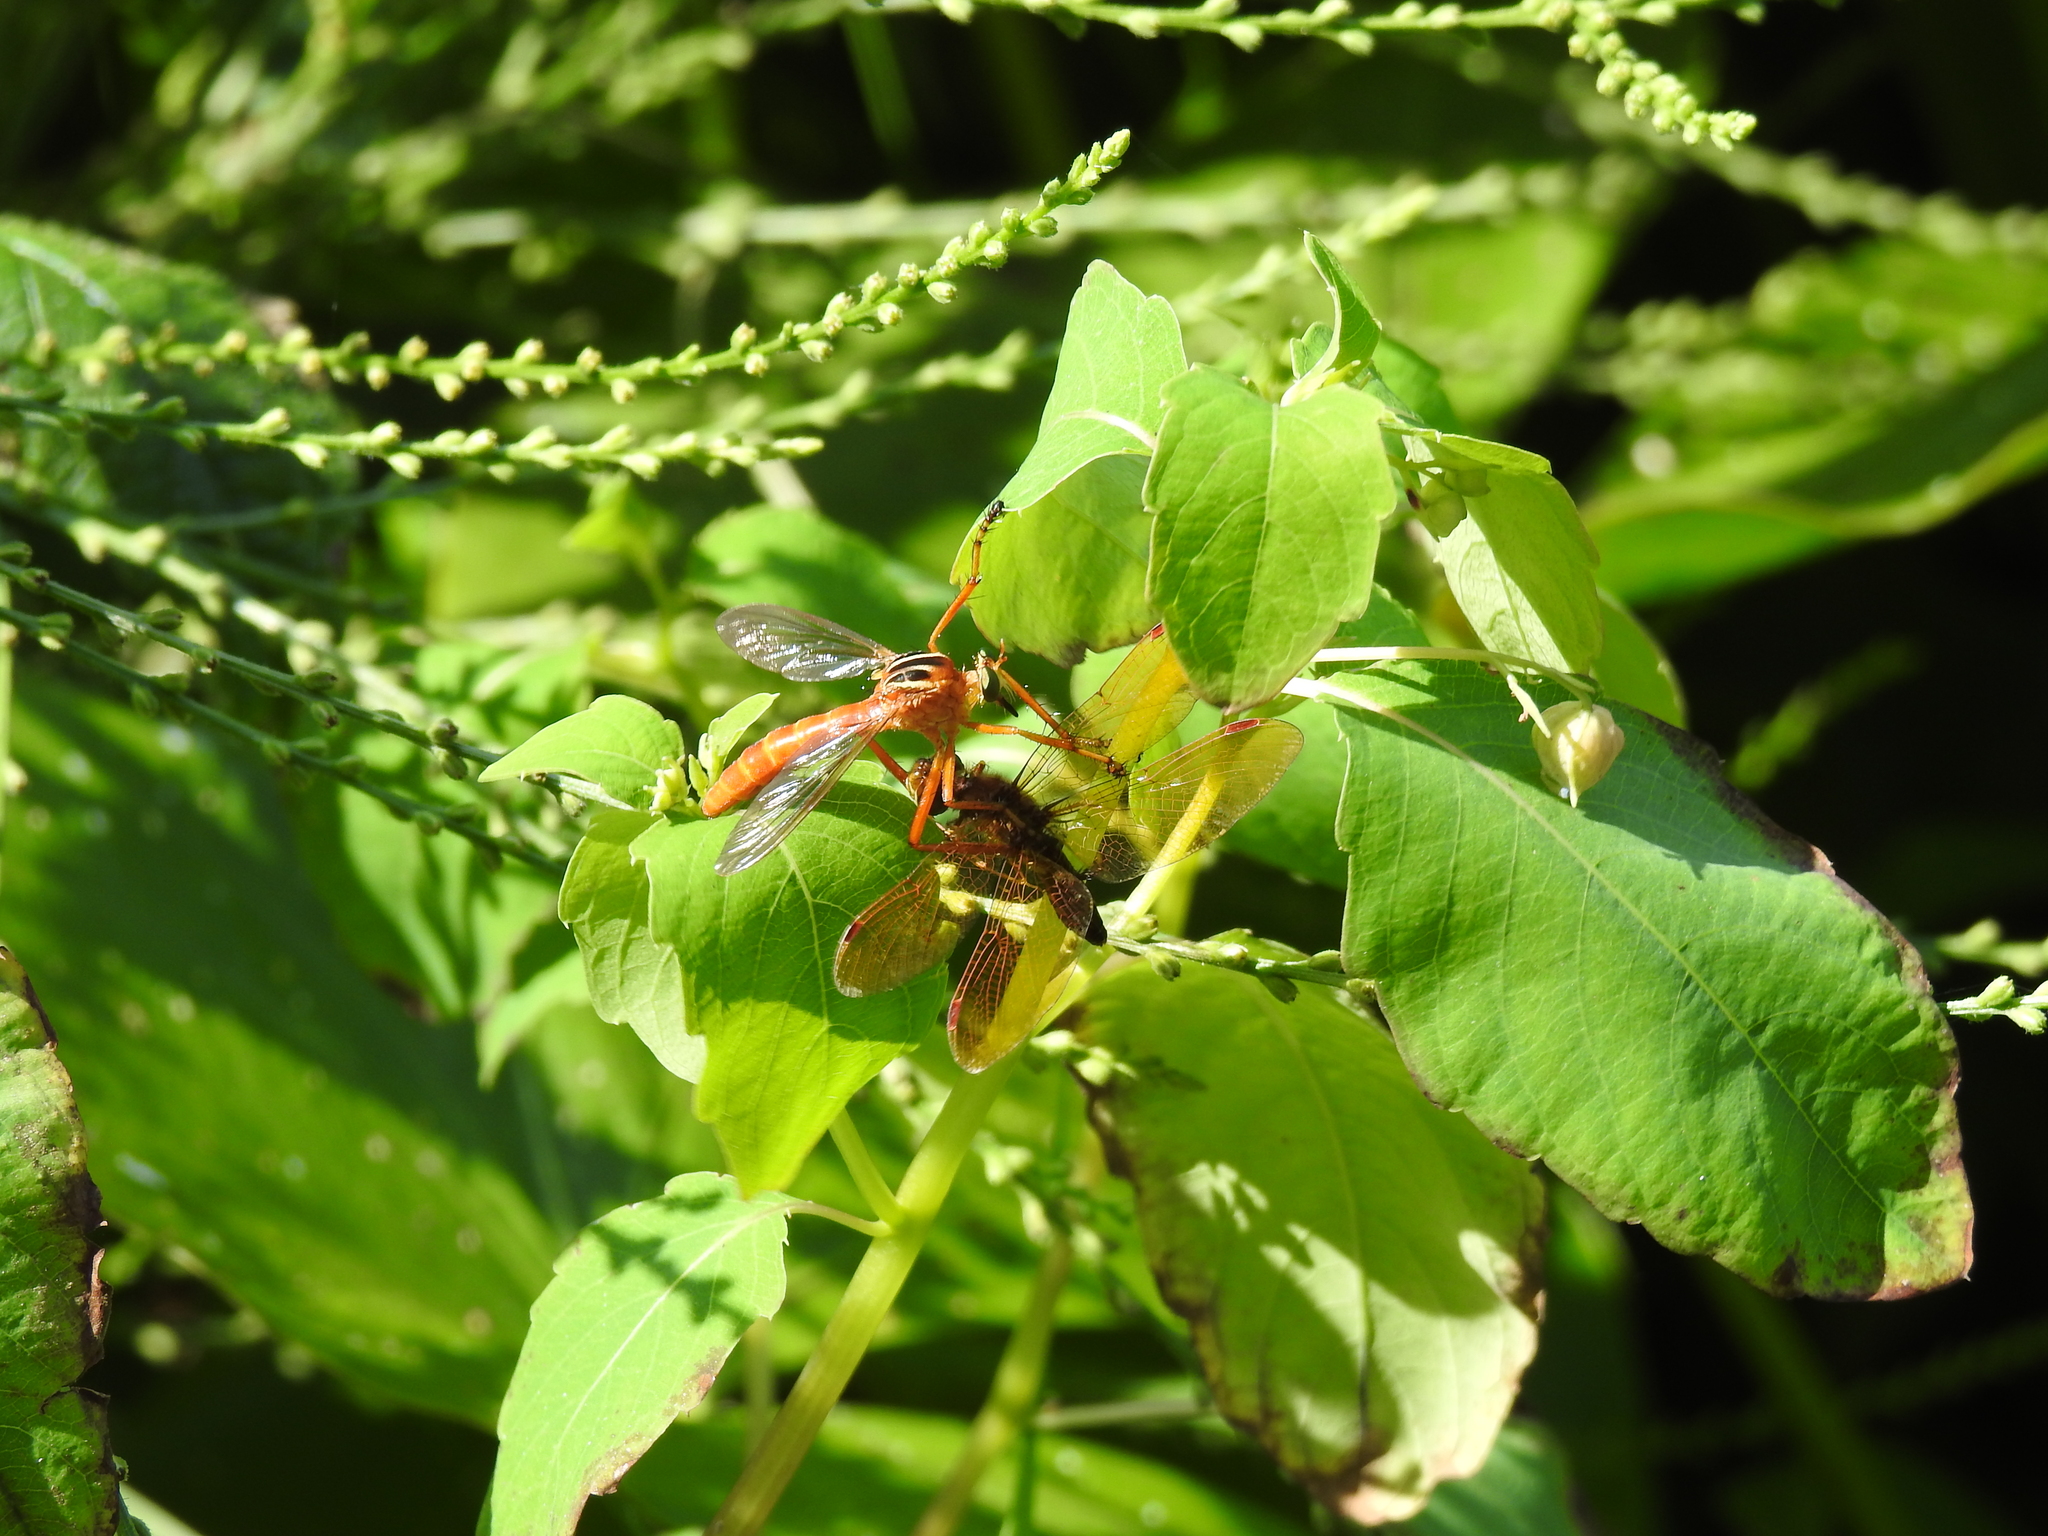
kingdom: Animalia
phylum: Arthropoda
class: Insecta
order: Diptera
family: Asilidae
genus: Diogmites
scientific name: Diogmites neoternatus
